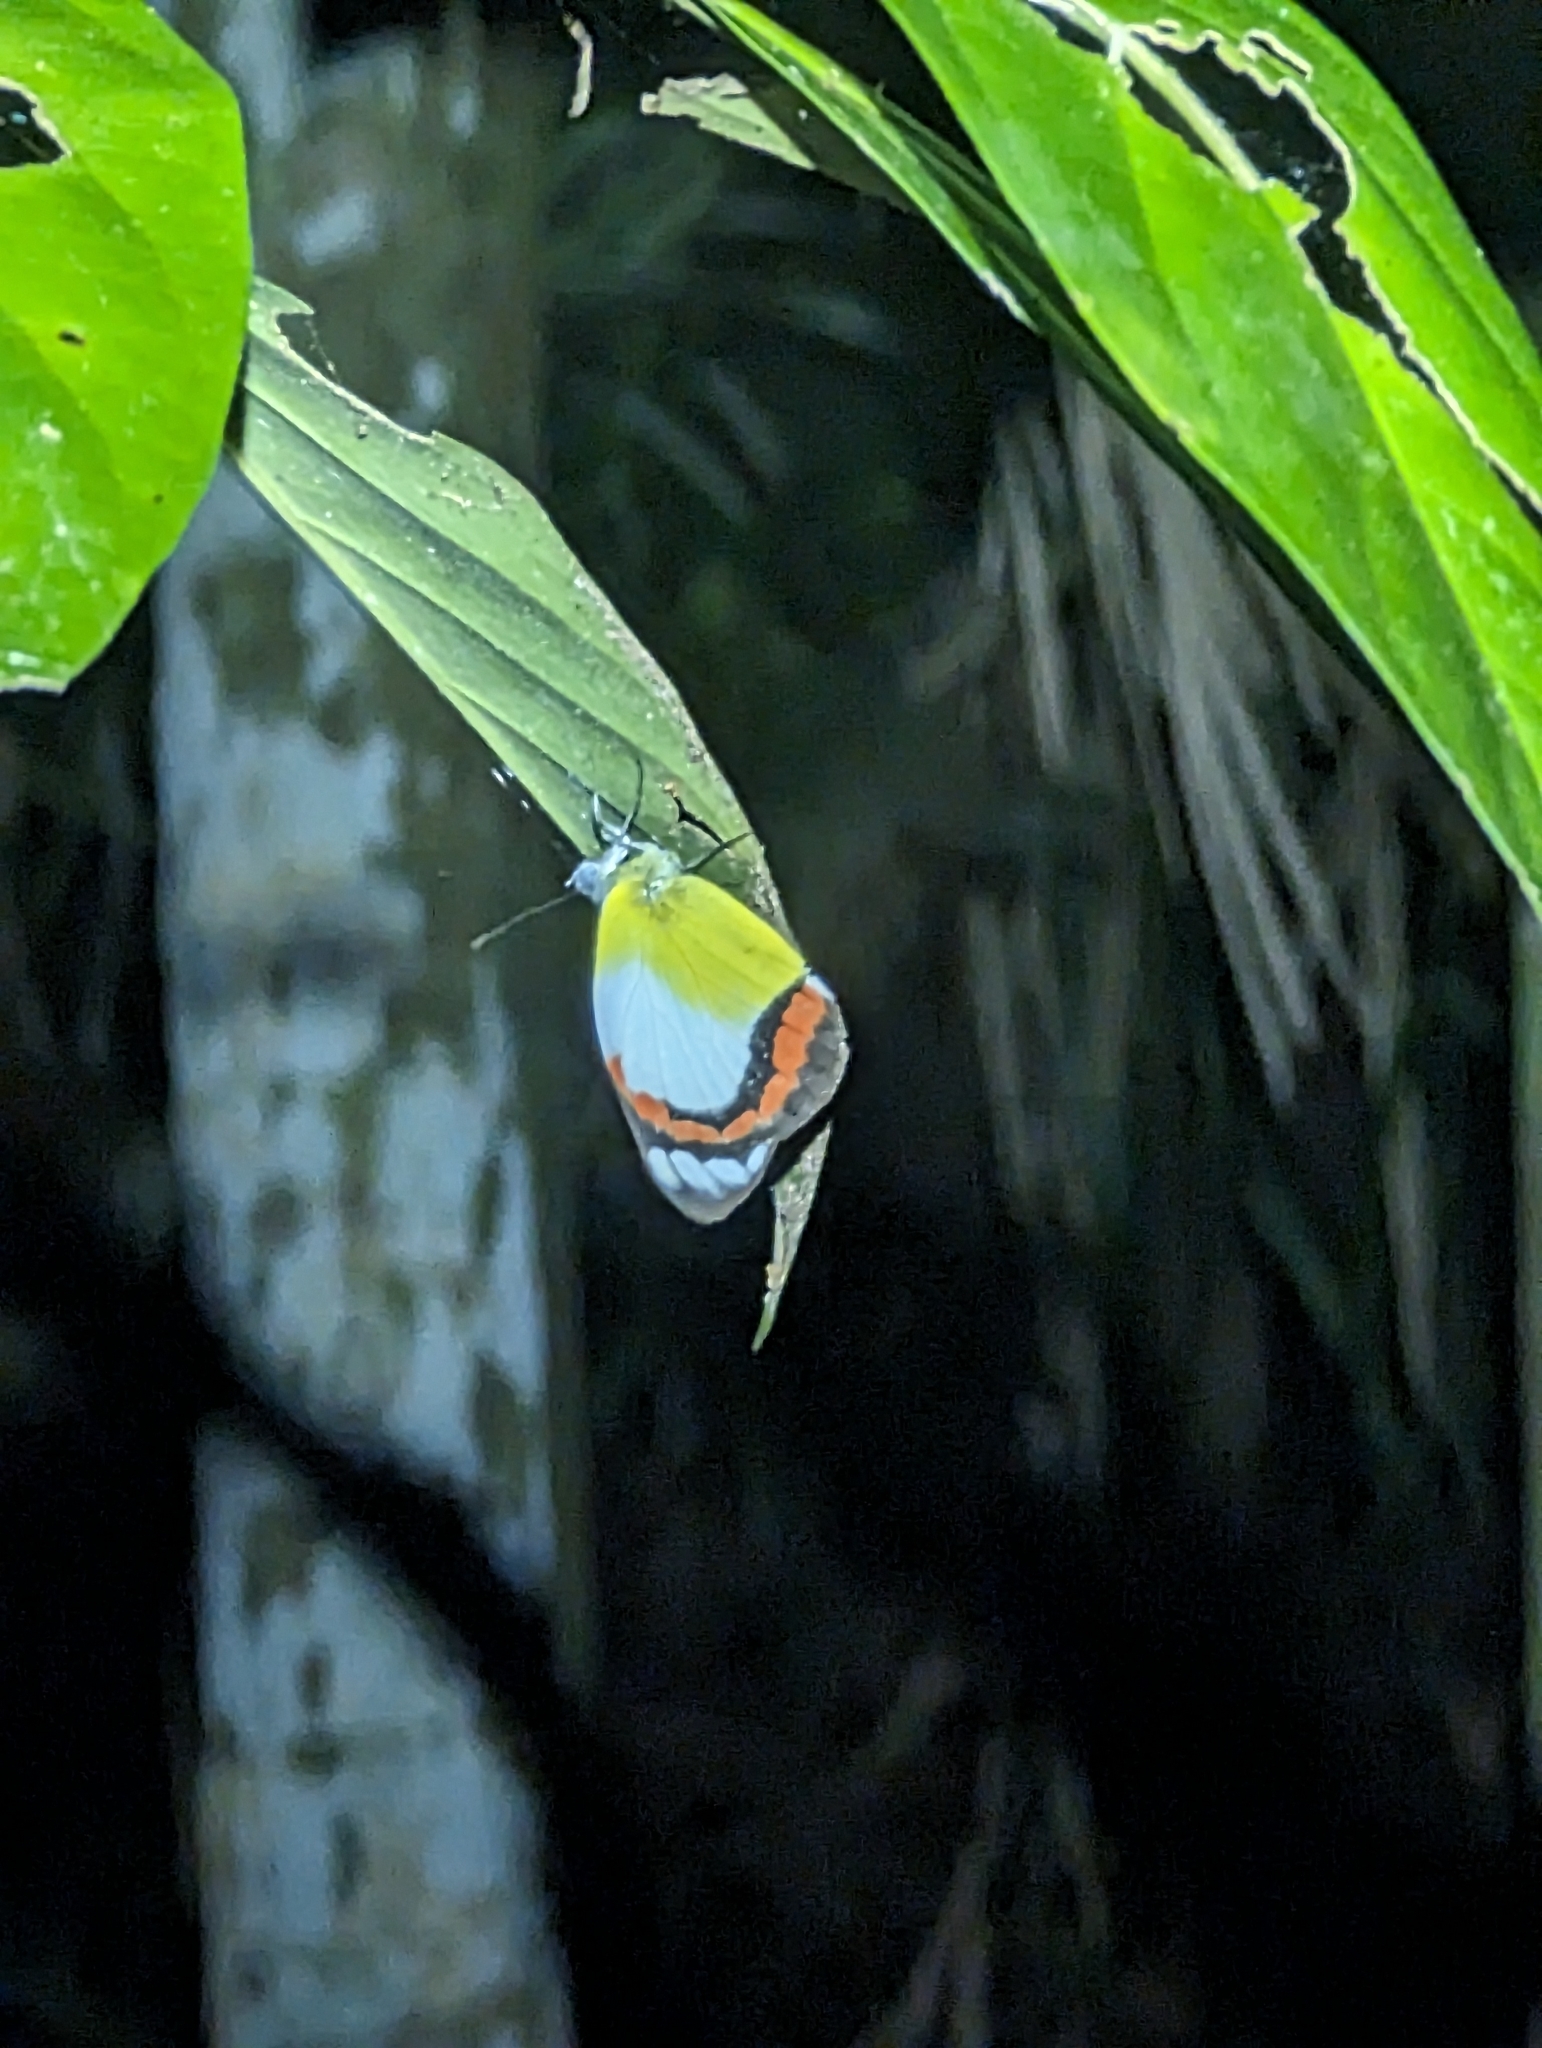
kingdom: Animalia
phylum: Arthropoda
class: Insecta
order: Lepidoptera
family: Pieridae
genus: Delias
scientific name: Delias mysis
